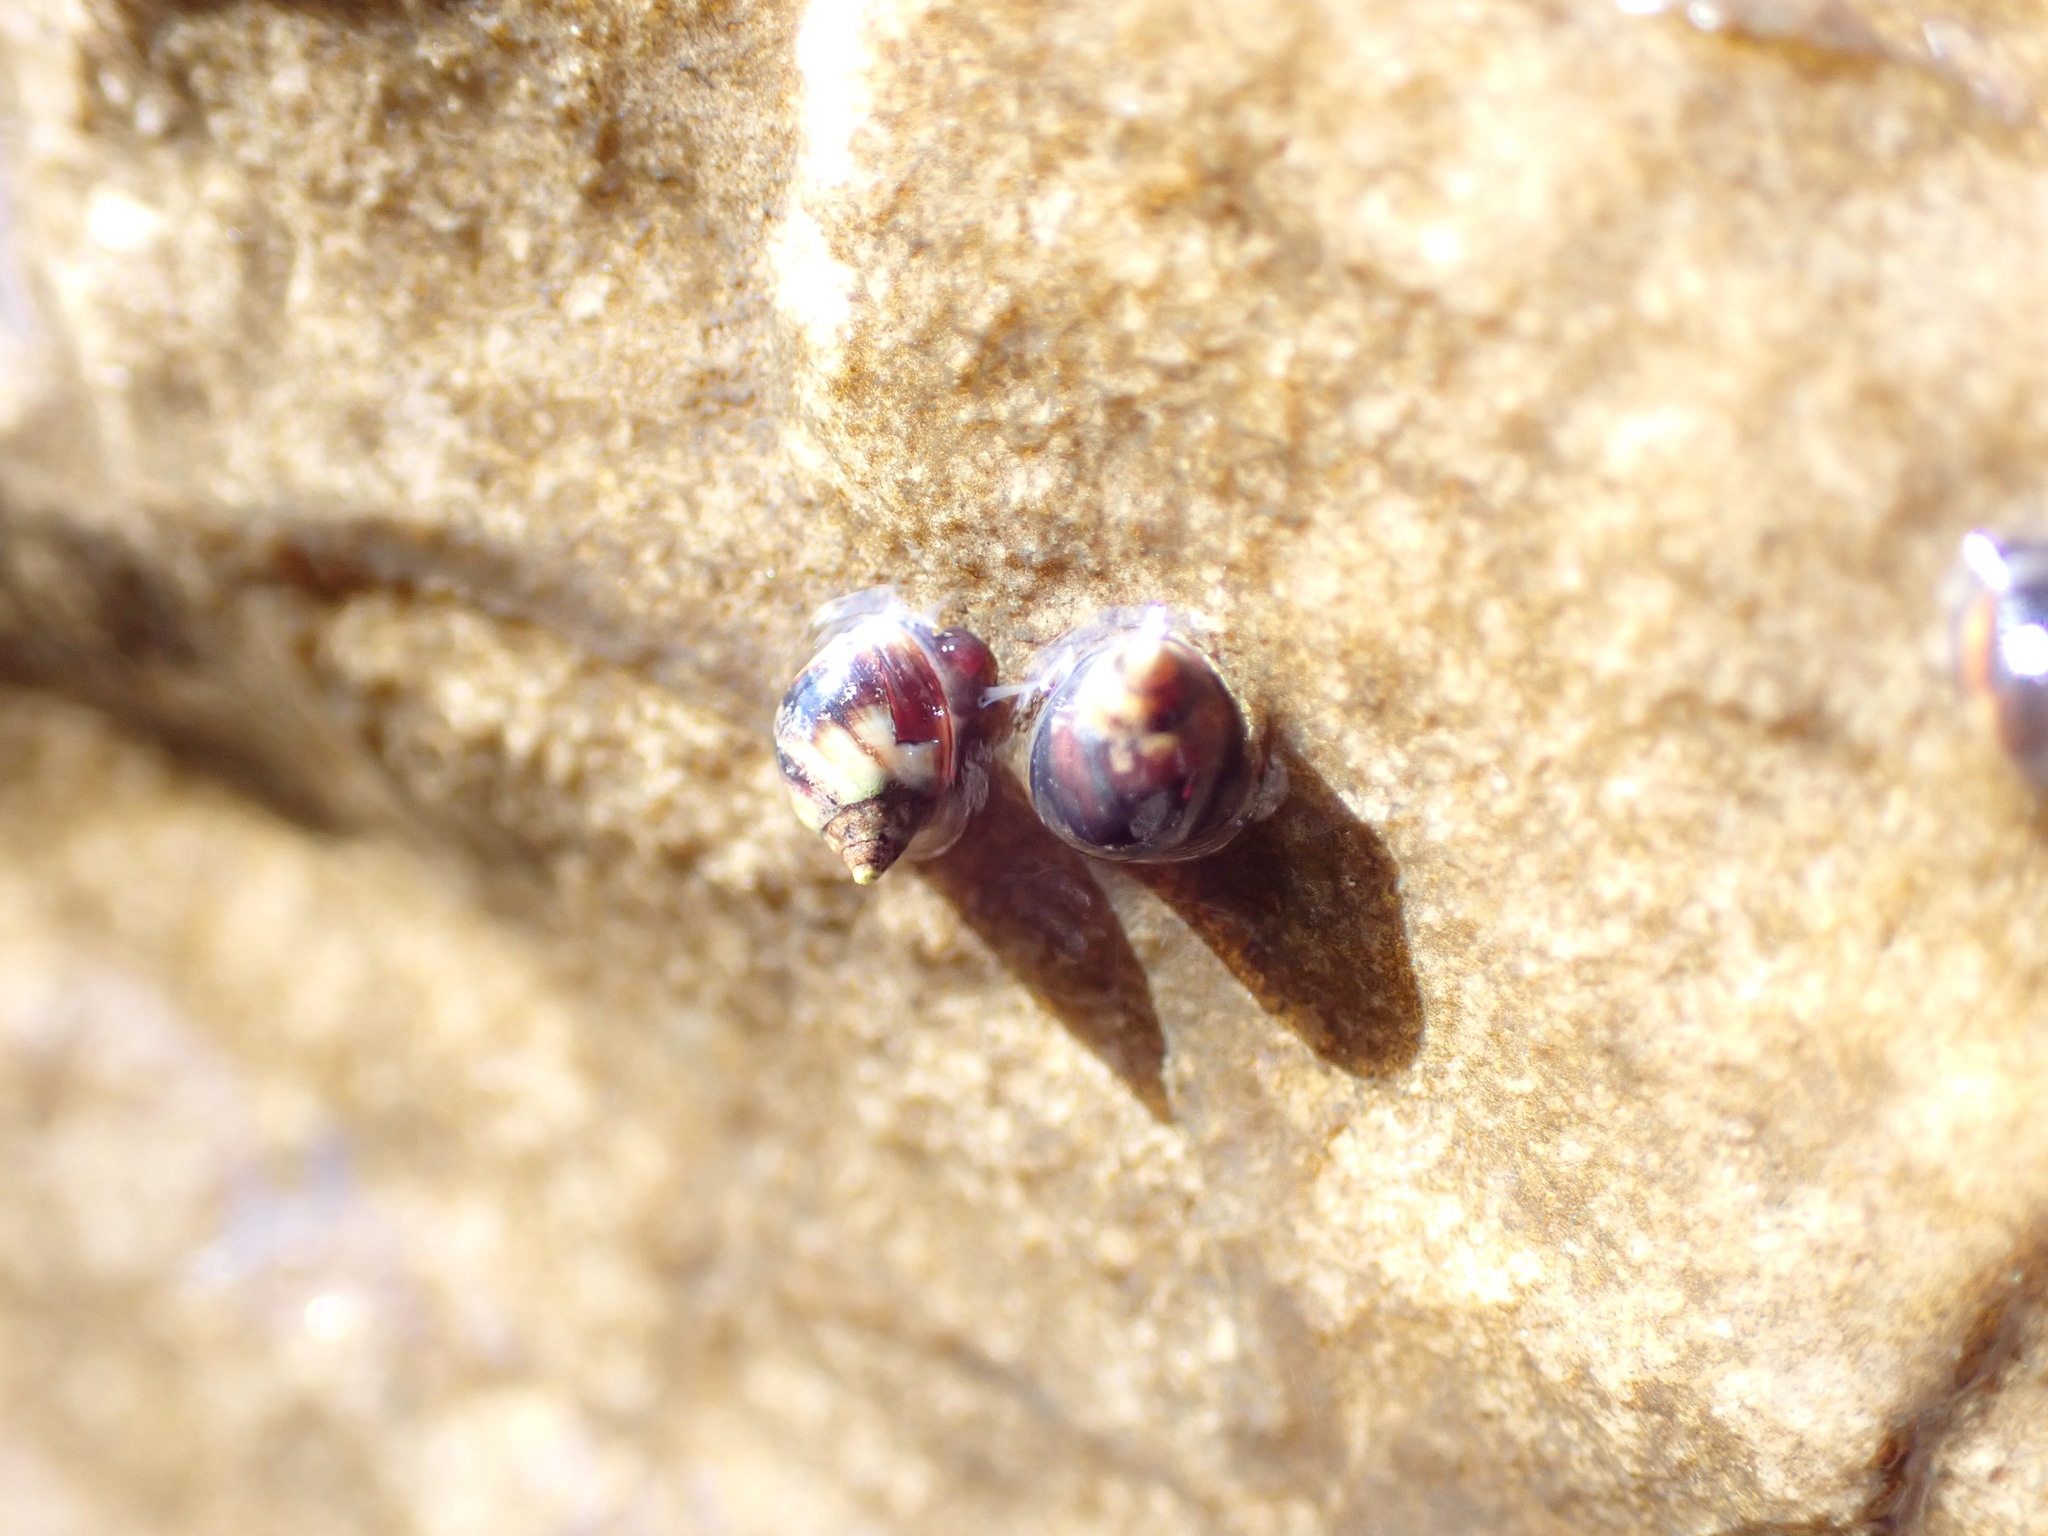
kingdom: Animalia
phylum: Mollusca
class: Gastropoda
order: Littorinimorpha
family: Littorinidae
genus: Melarhaphe
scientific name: Melarhaphe neritoides
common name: Small periwinkle
